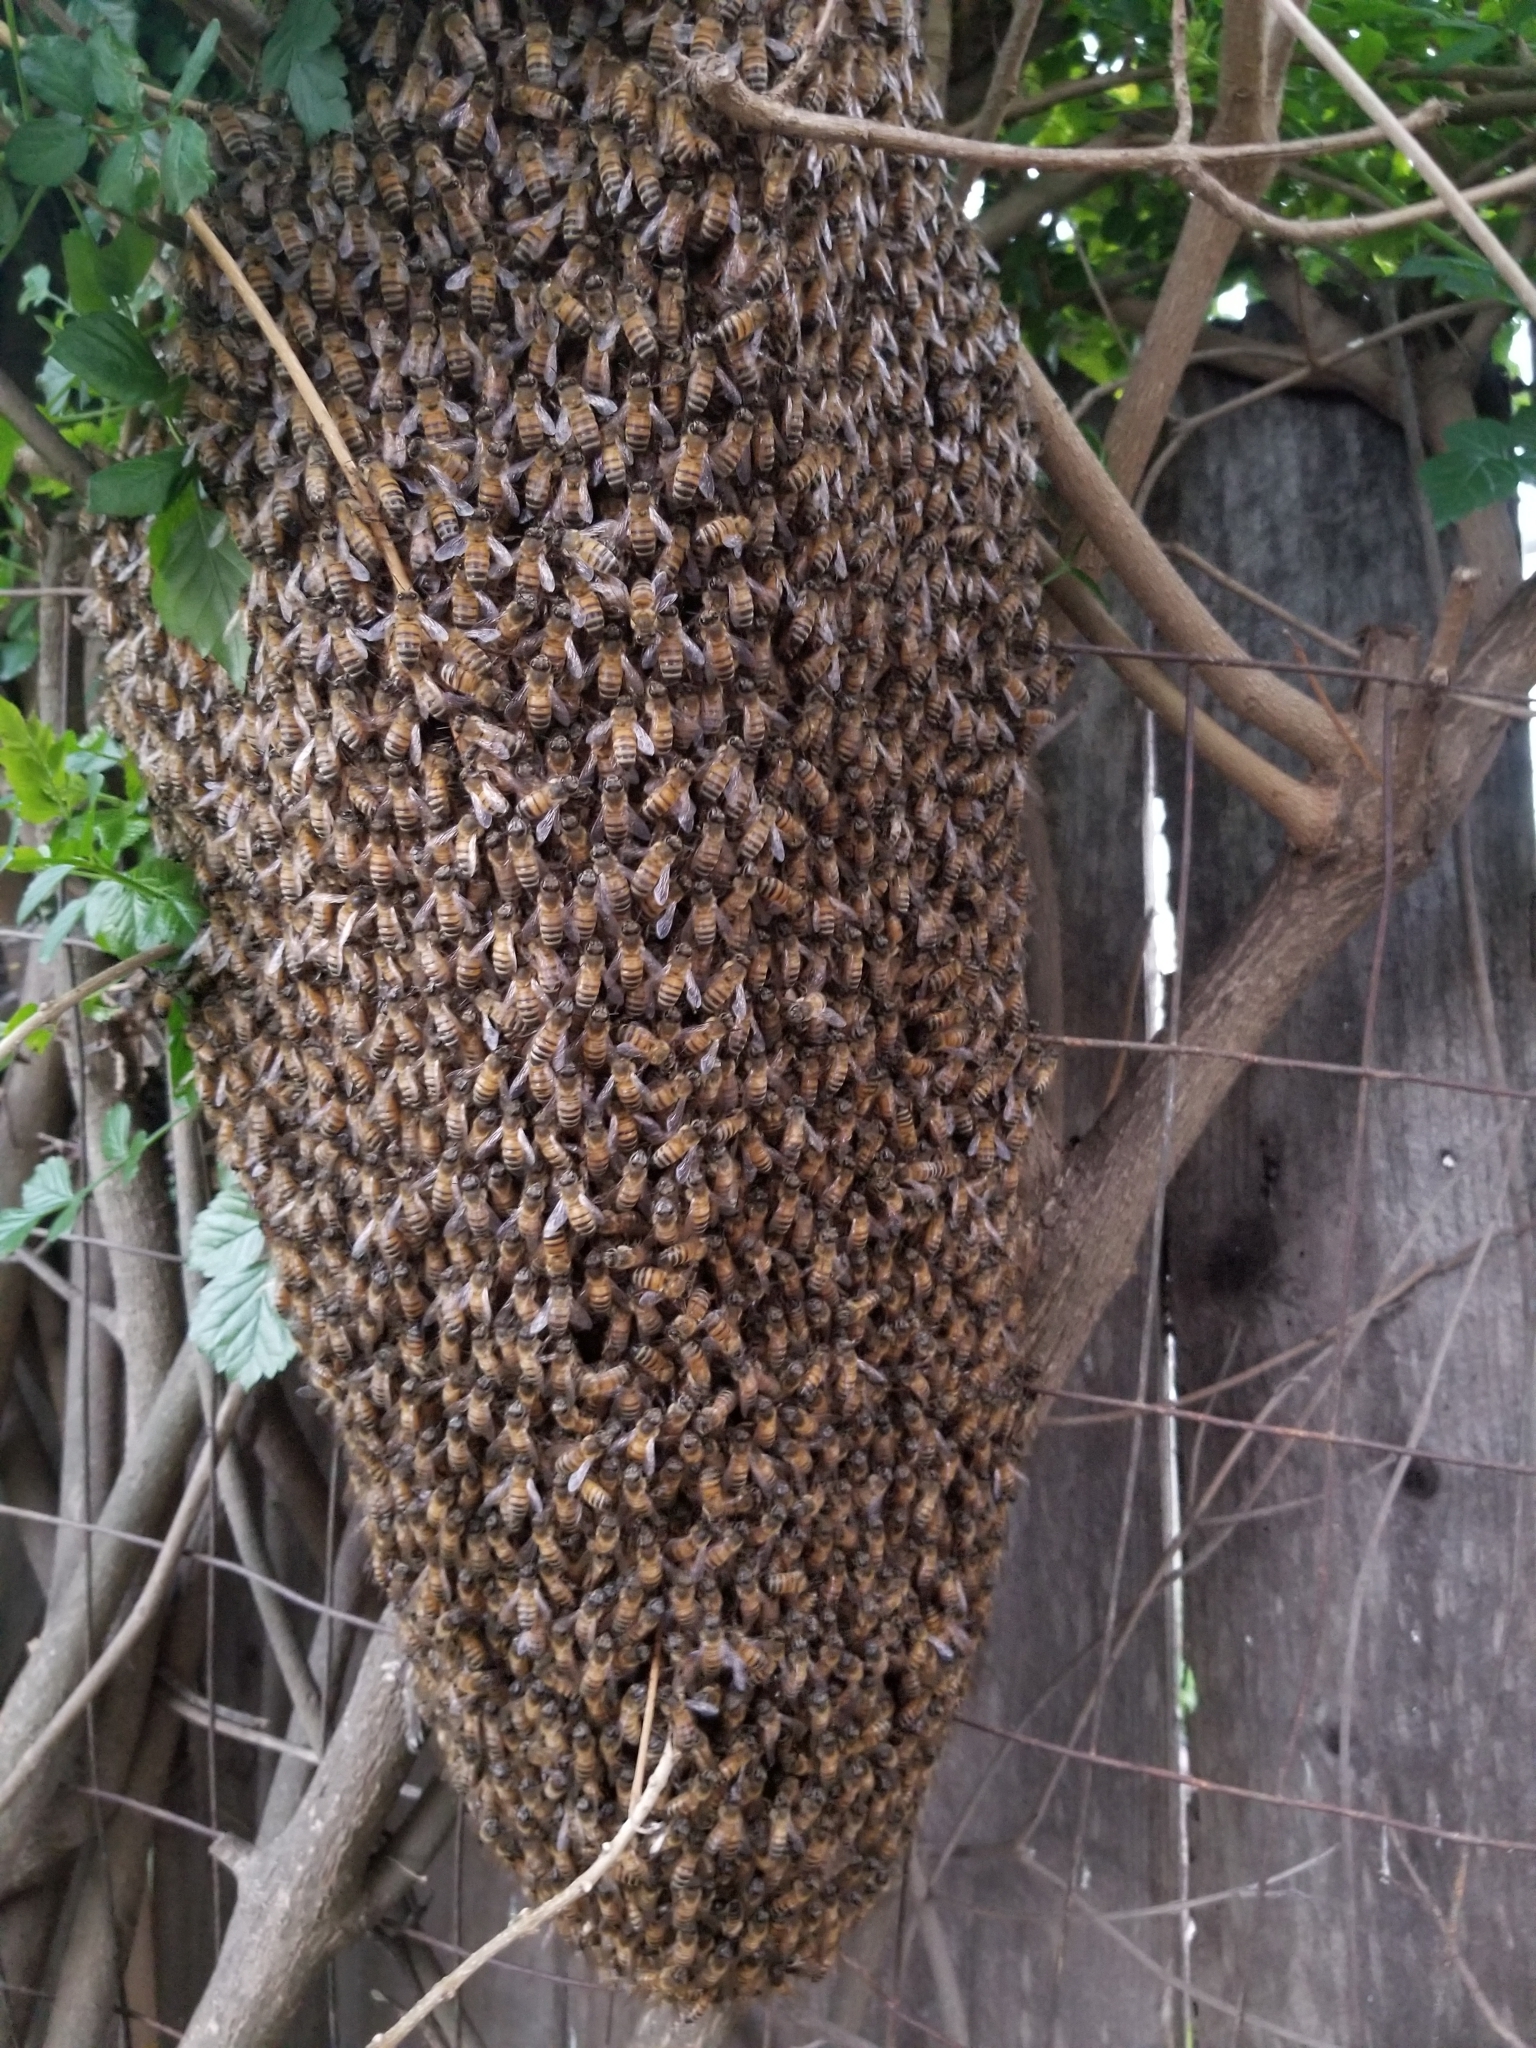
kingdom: Animalia
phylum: Arthropoda
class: Insecta
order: Hymenoptera
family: Apidae
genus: Apis
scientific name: Apis mellifera
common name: Honey bee
